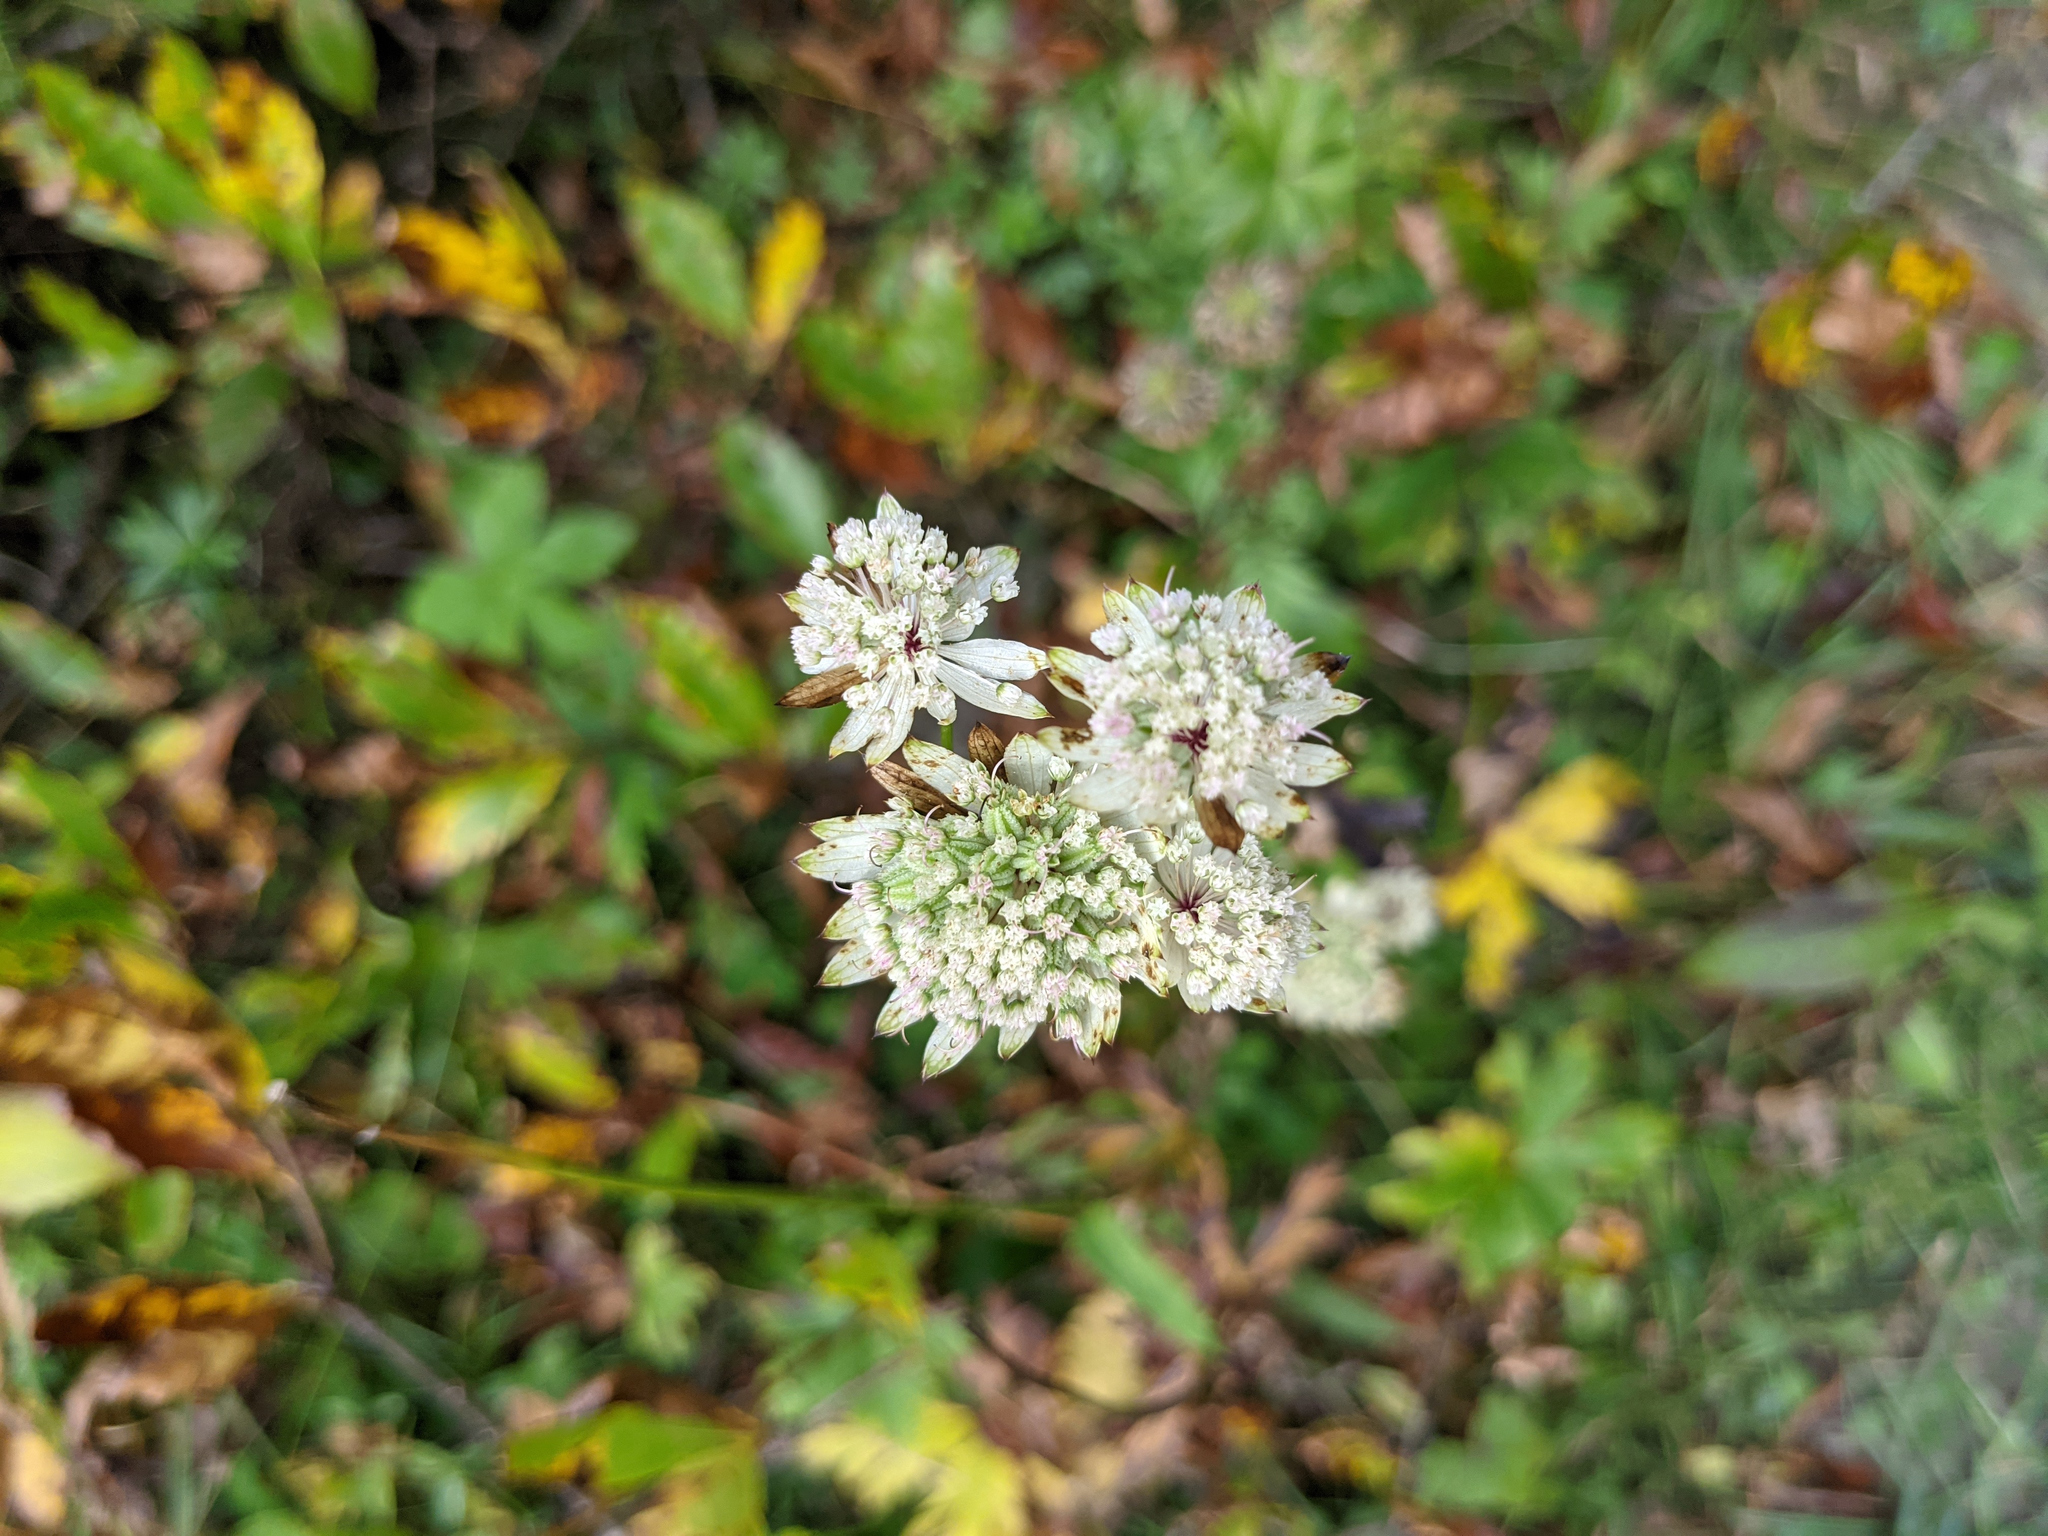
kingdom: Plantae
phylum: Tracheophyta
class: Magnoliopsida
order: Apiales
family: Apiaceae
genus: Astrantia
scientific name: Astrantia major
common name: Greater masterwort
